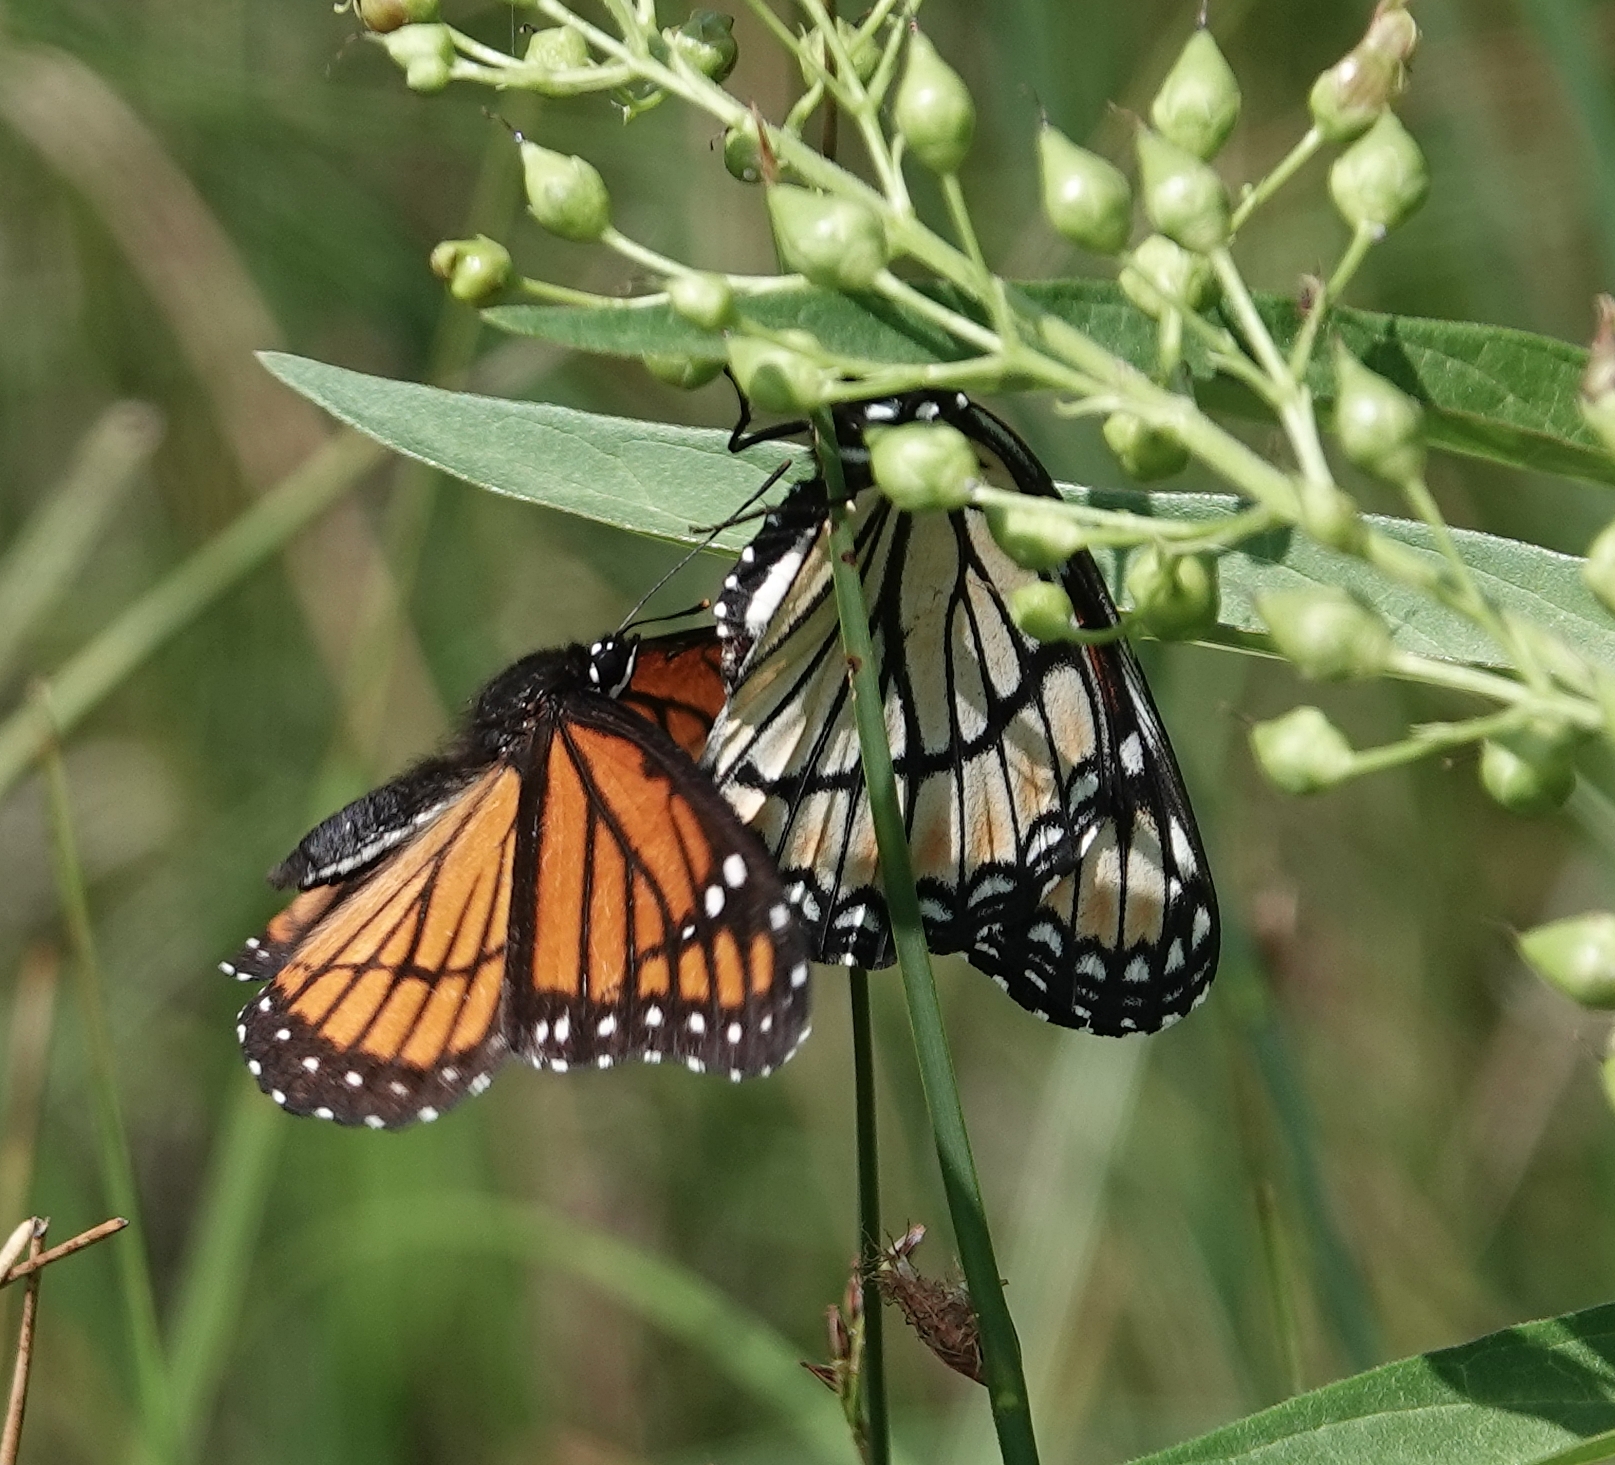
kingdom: Animalia
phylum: Arthropoda
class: Insecta
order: Lepidoptera
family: Nymphalidae
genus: Limenitis
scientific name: Limenitis archippus
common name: Viceroy
